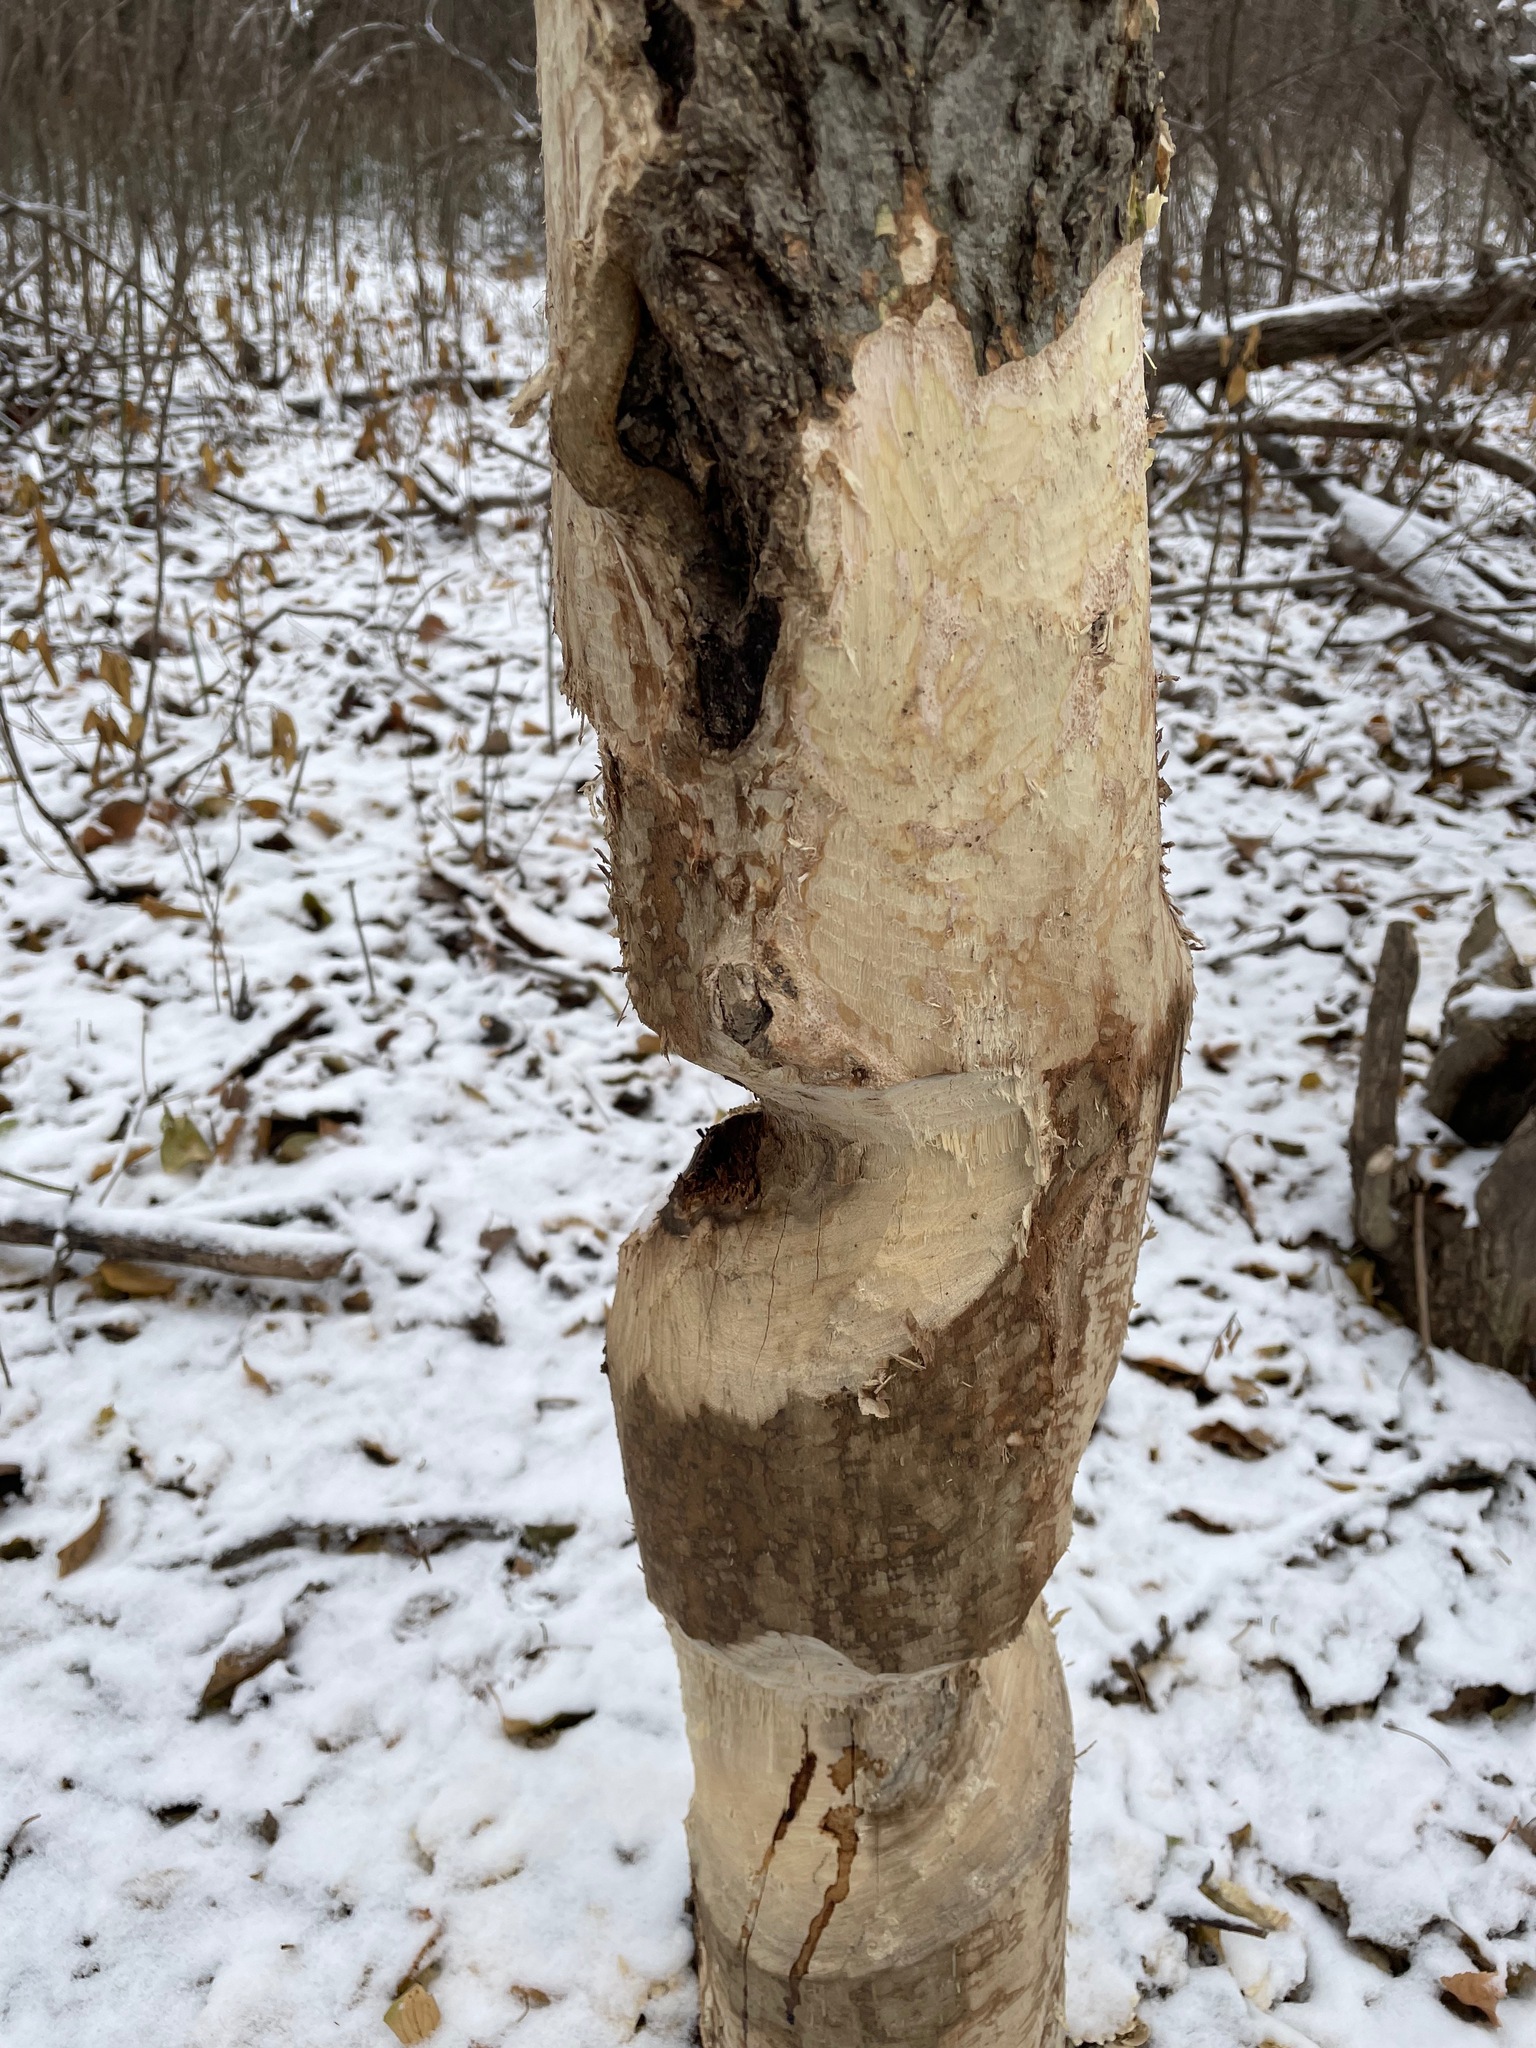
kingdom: Animalia
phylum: Chordata
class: Mammalia
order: Rodentia
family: Castoridae
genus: Castor
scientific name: Castor canadensis
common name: American beaver
